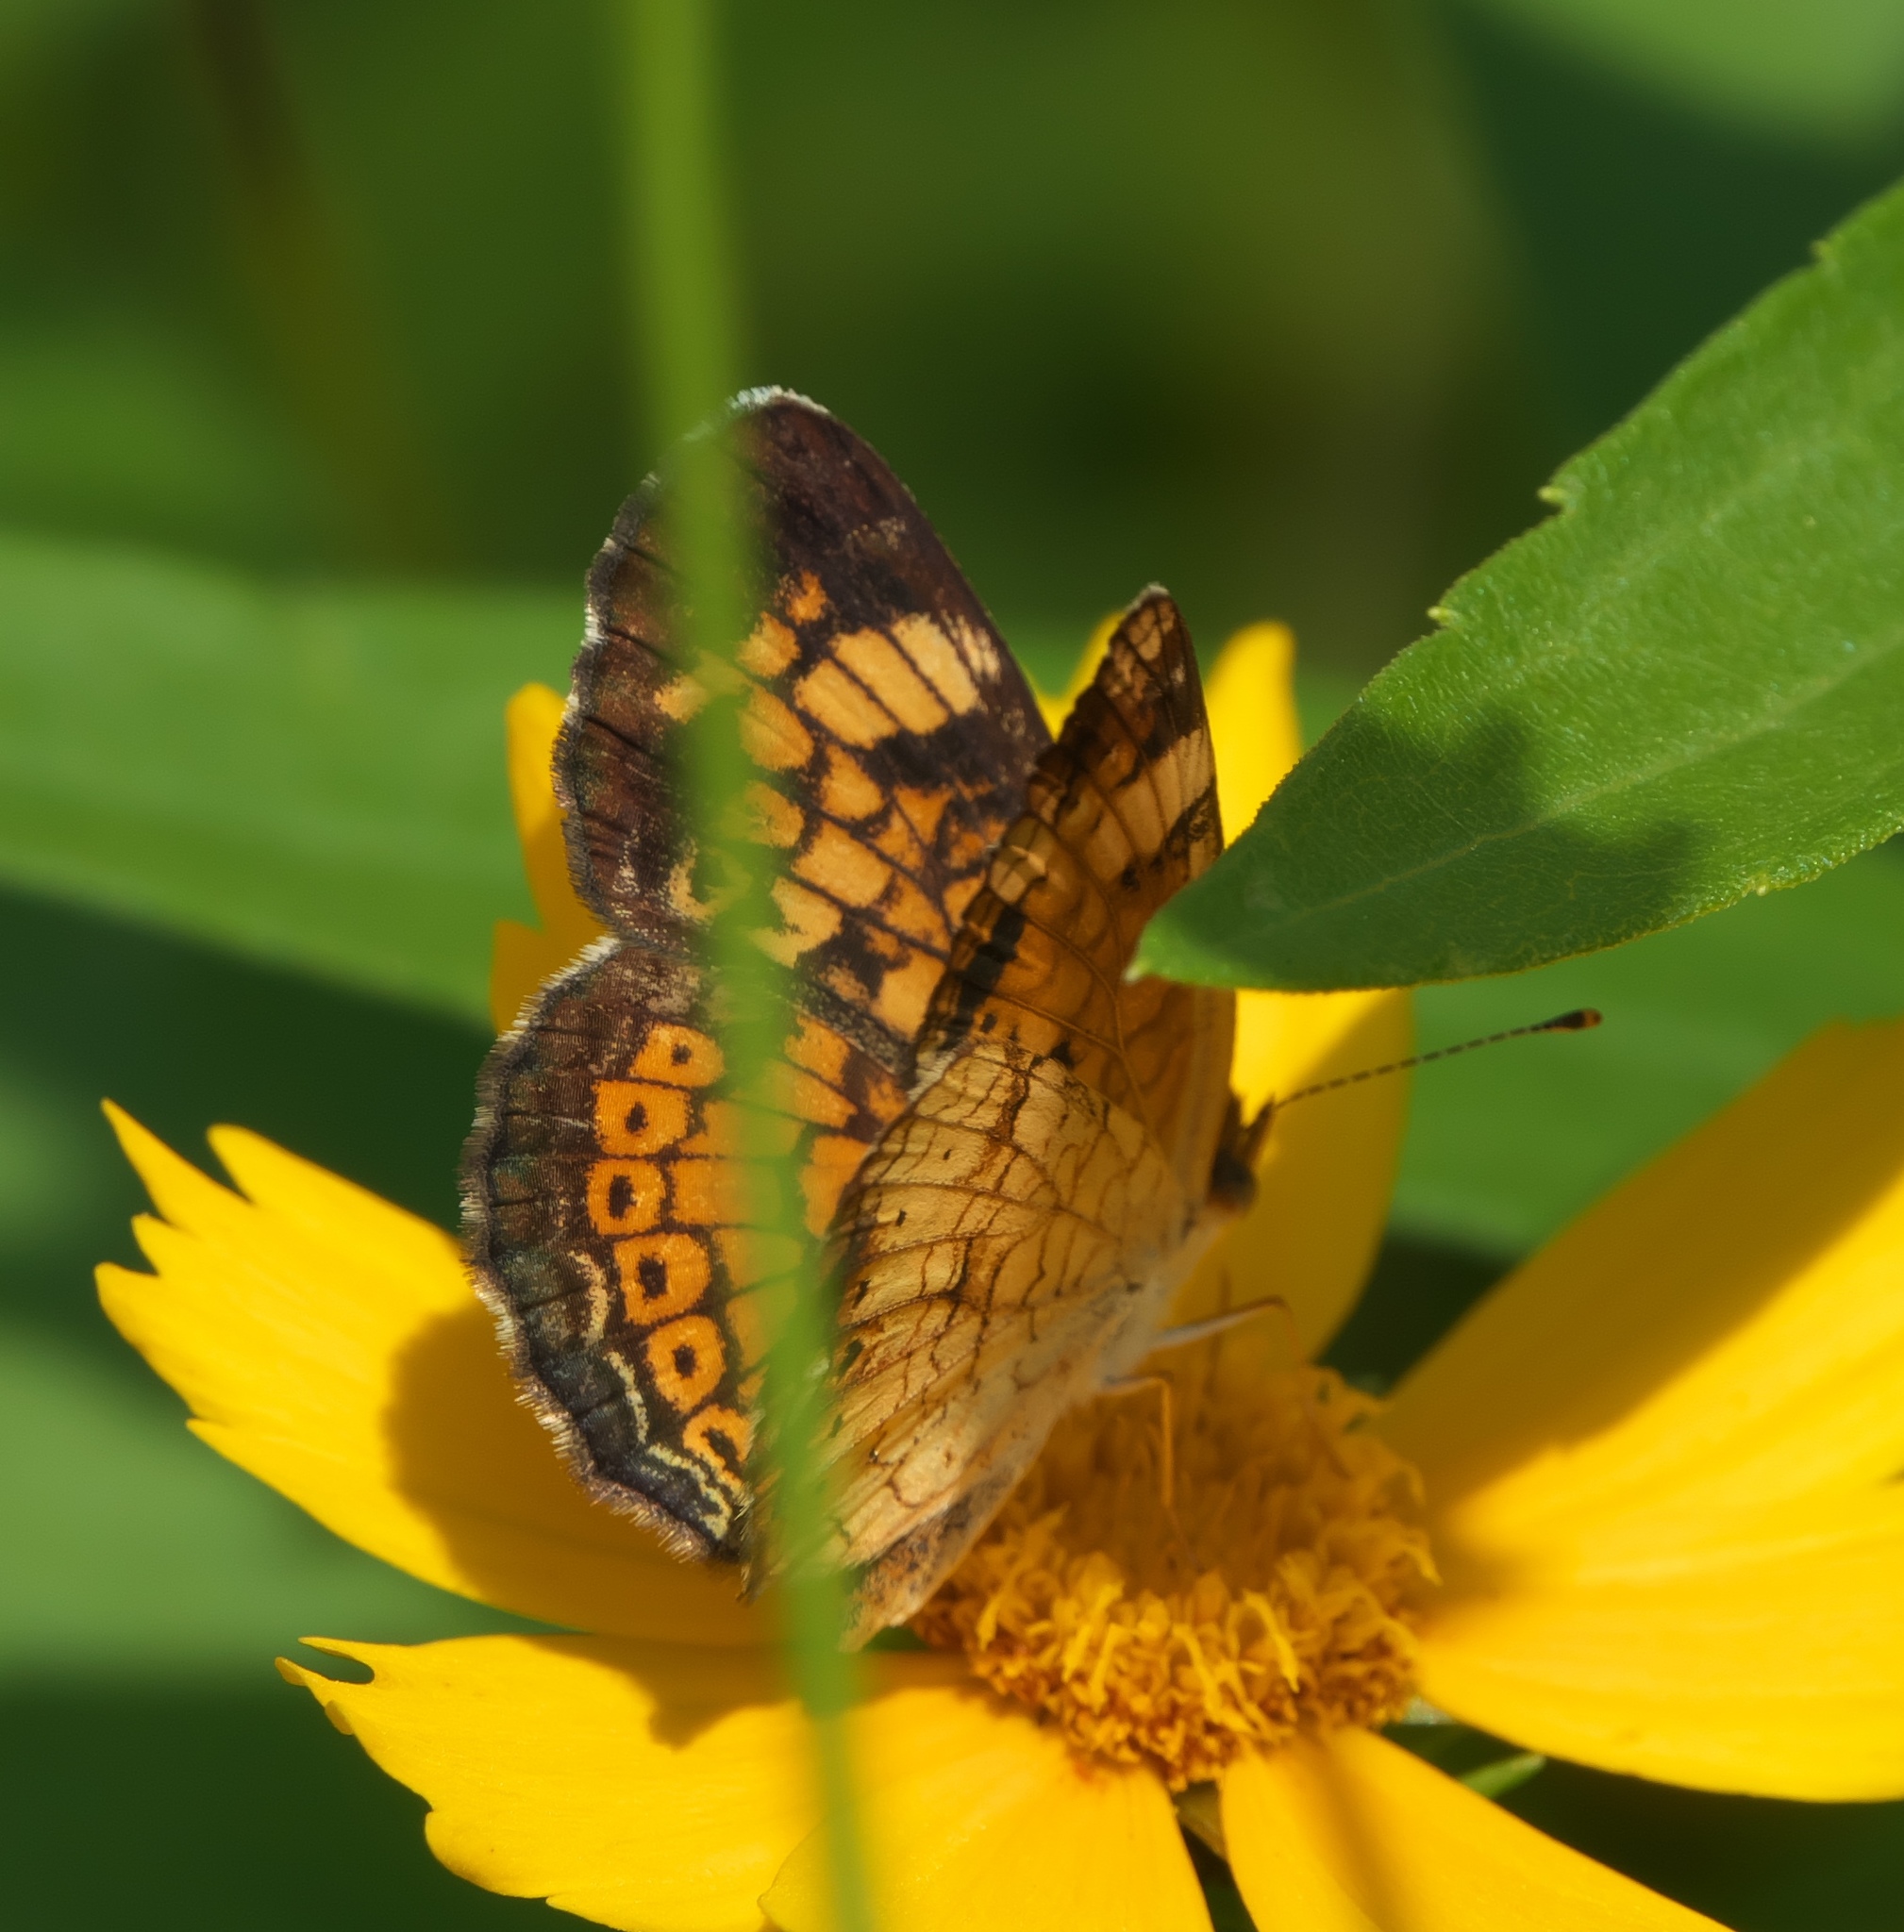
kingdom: Animalia
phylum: Arthropoda
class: Insecta
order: Lepidoptera
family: Nymphalidae
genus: Phyciodes
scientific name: Phyciodes tharos
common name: Pearl crescent
